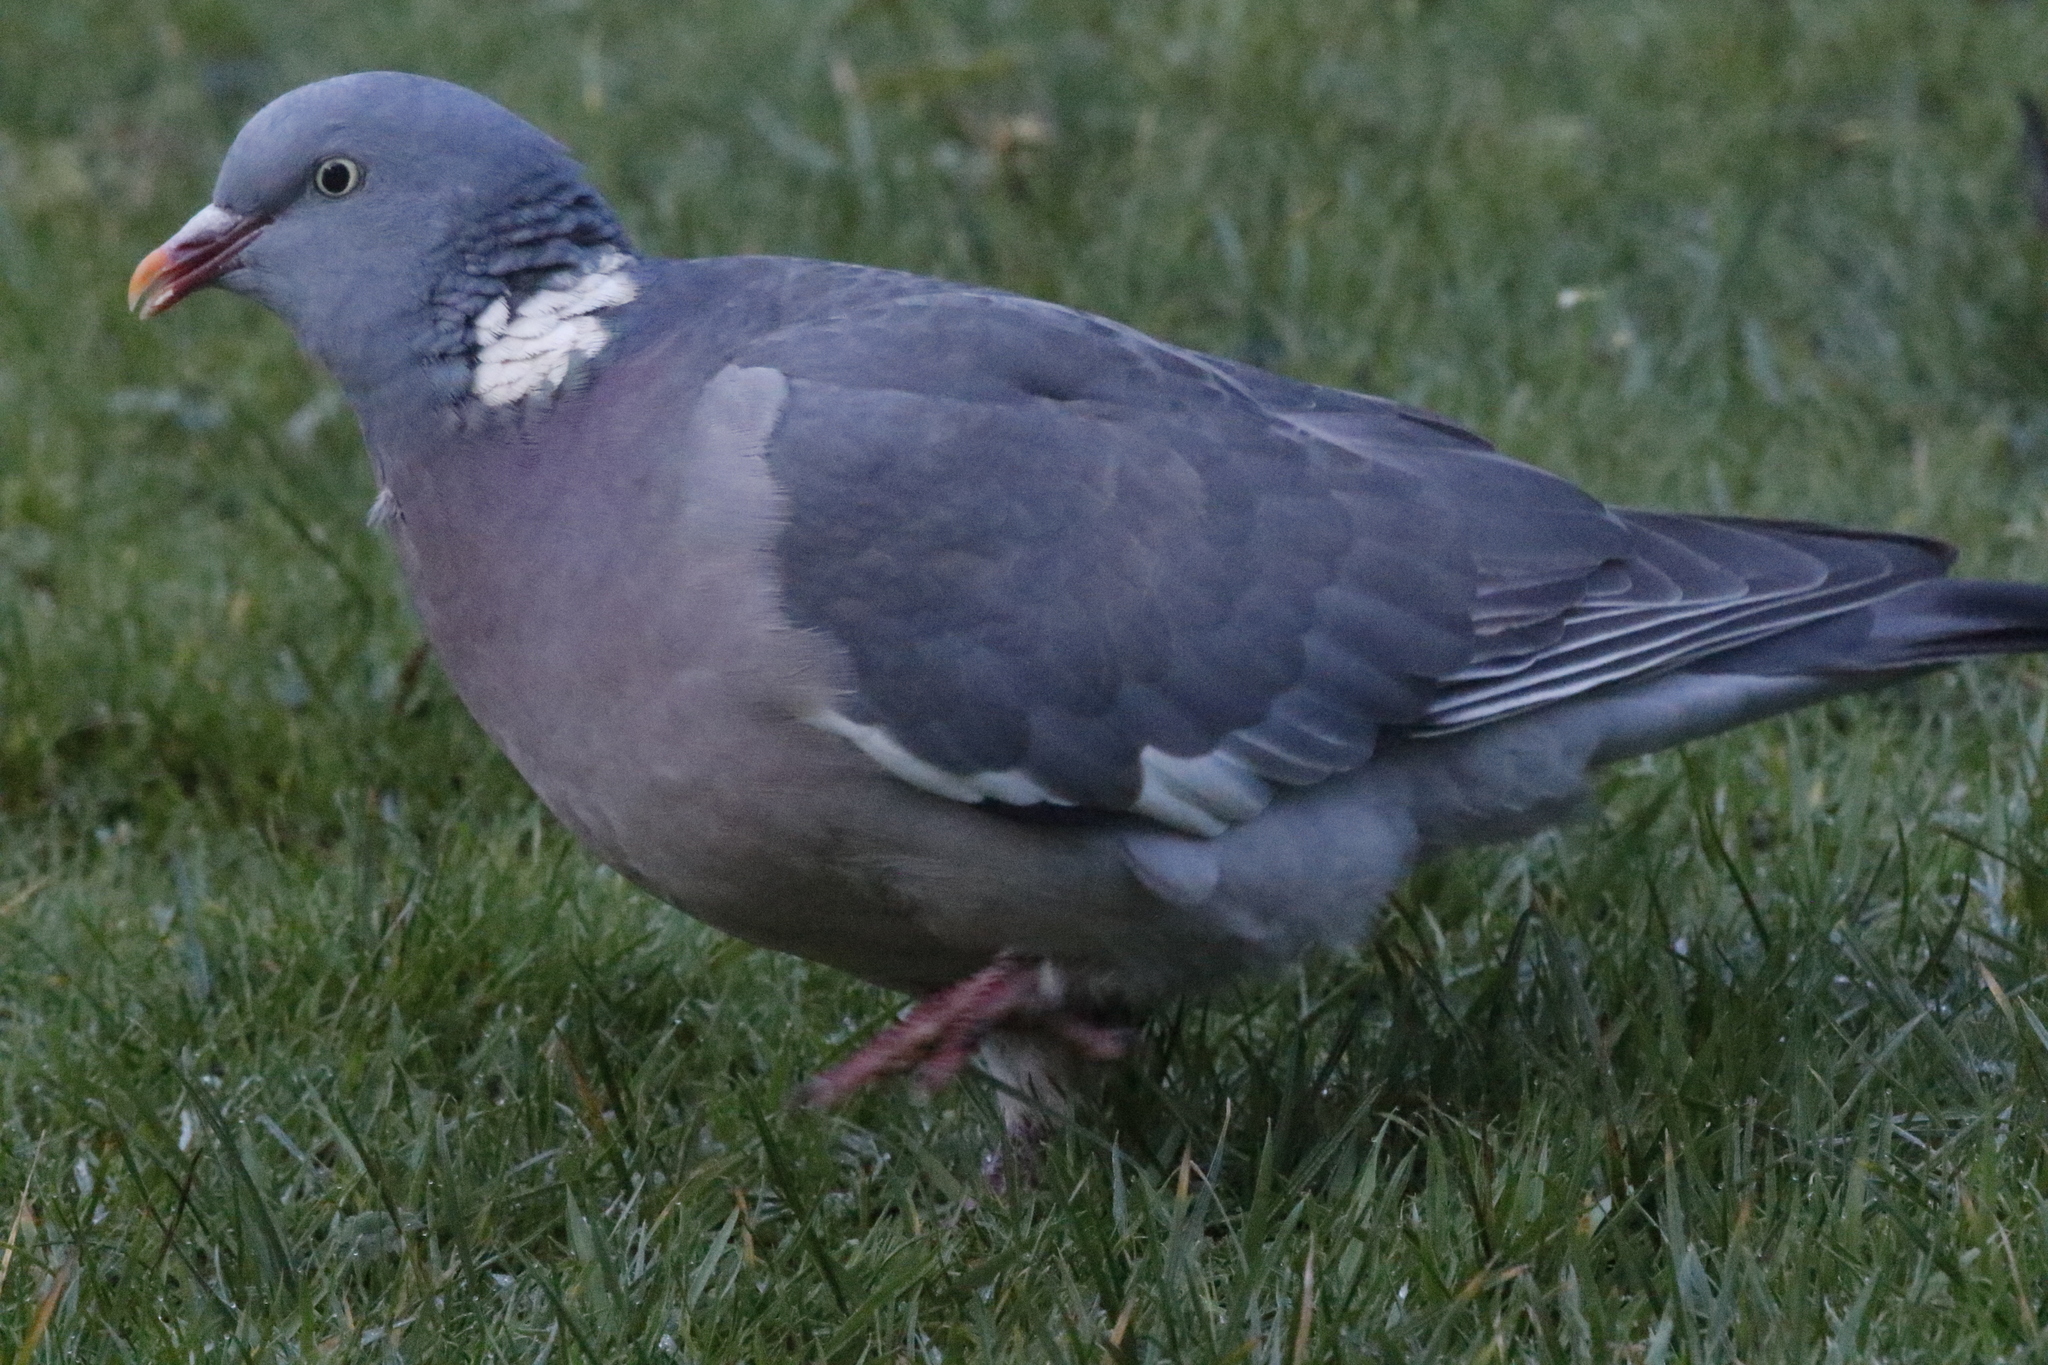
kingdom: Animalia
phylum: Chordata
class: Aves
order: Columbiformes
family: Columbidae
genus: Columba
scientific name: Columba palumbus
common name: Common wood pigeon
